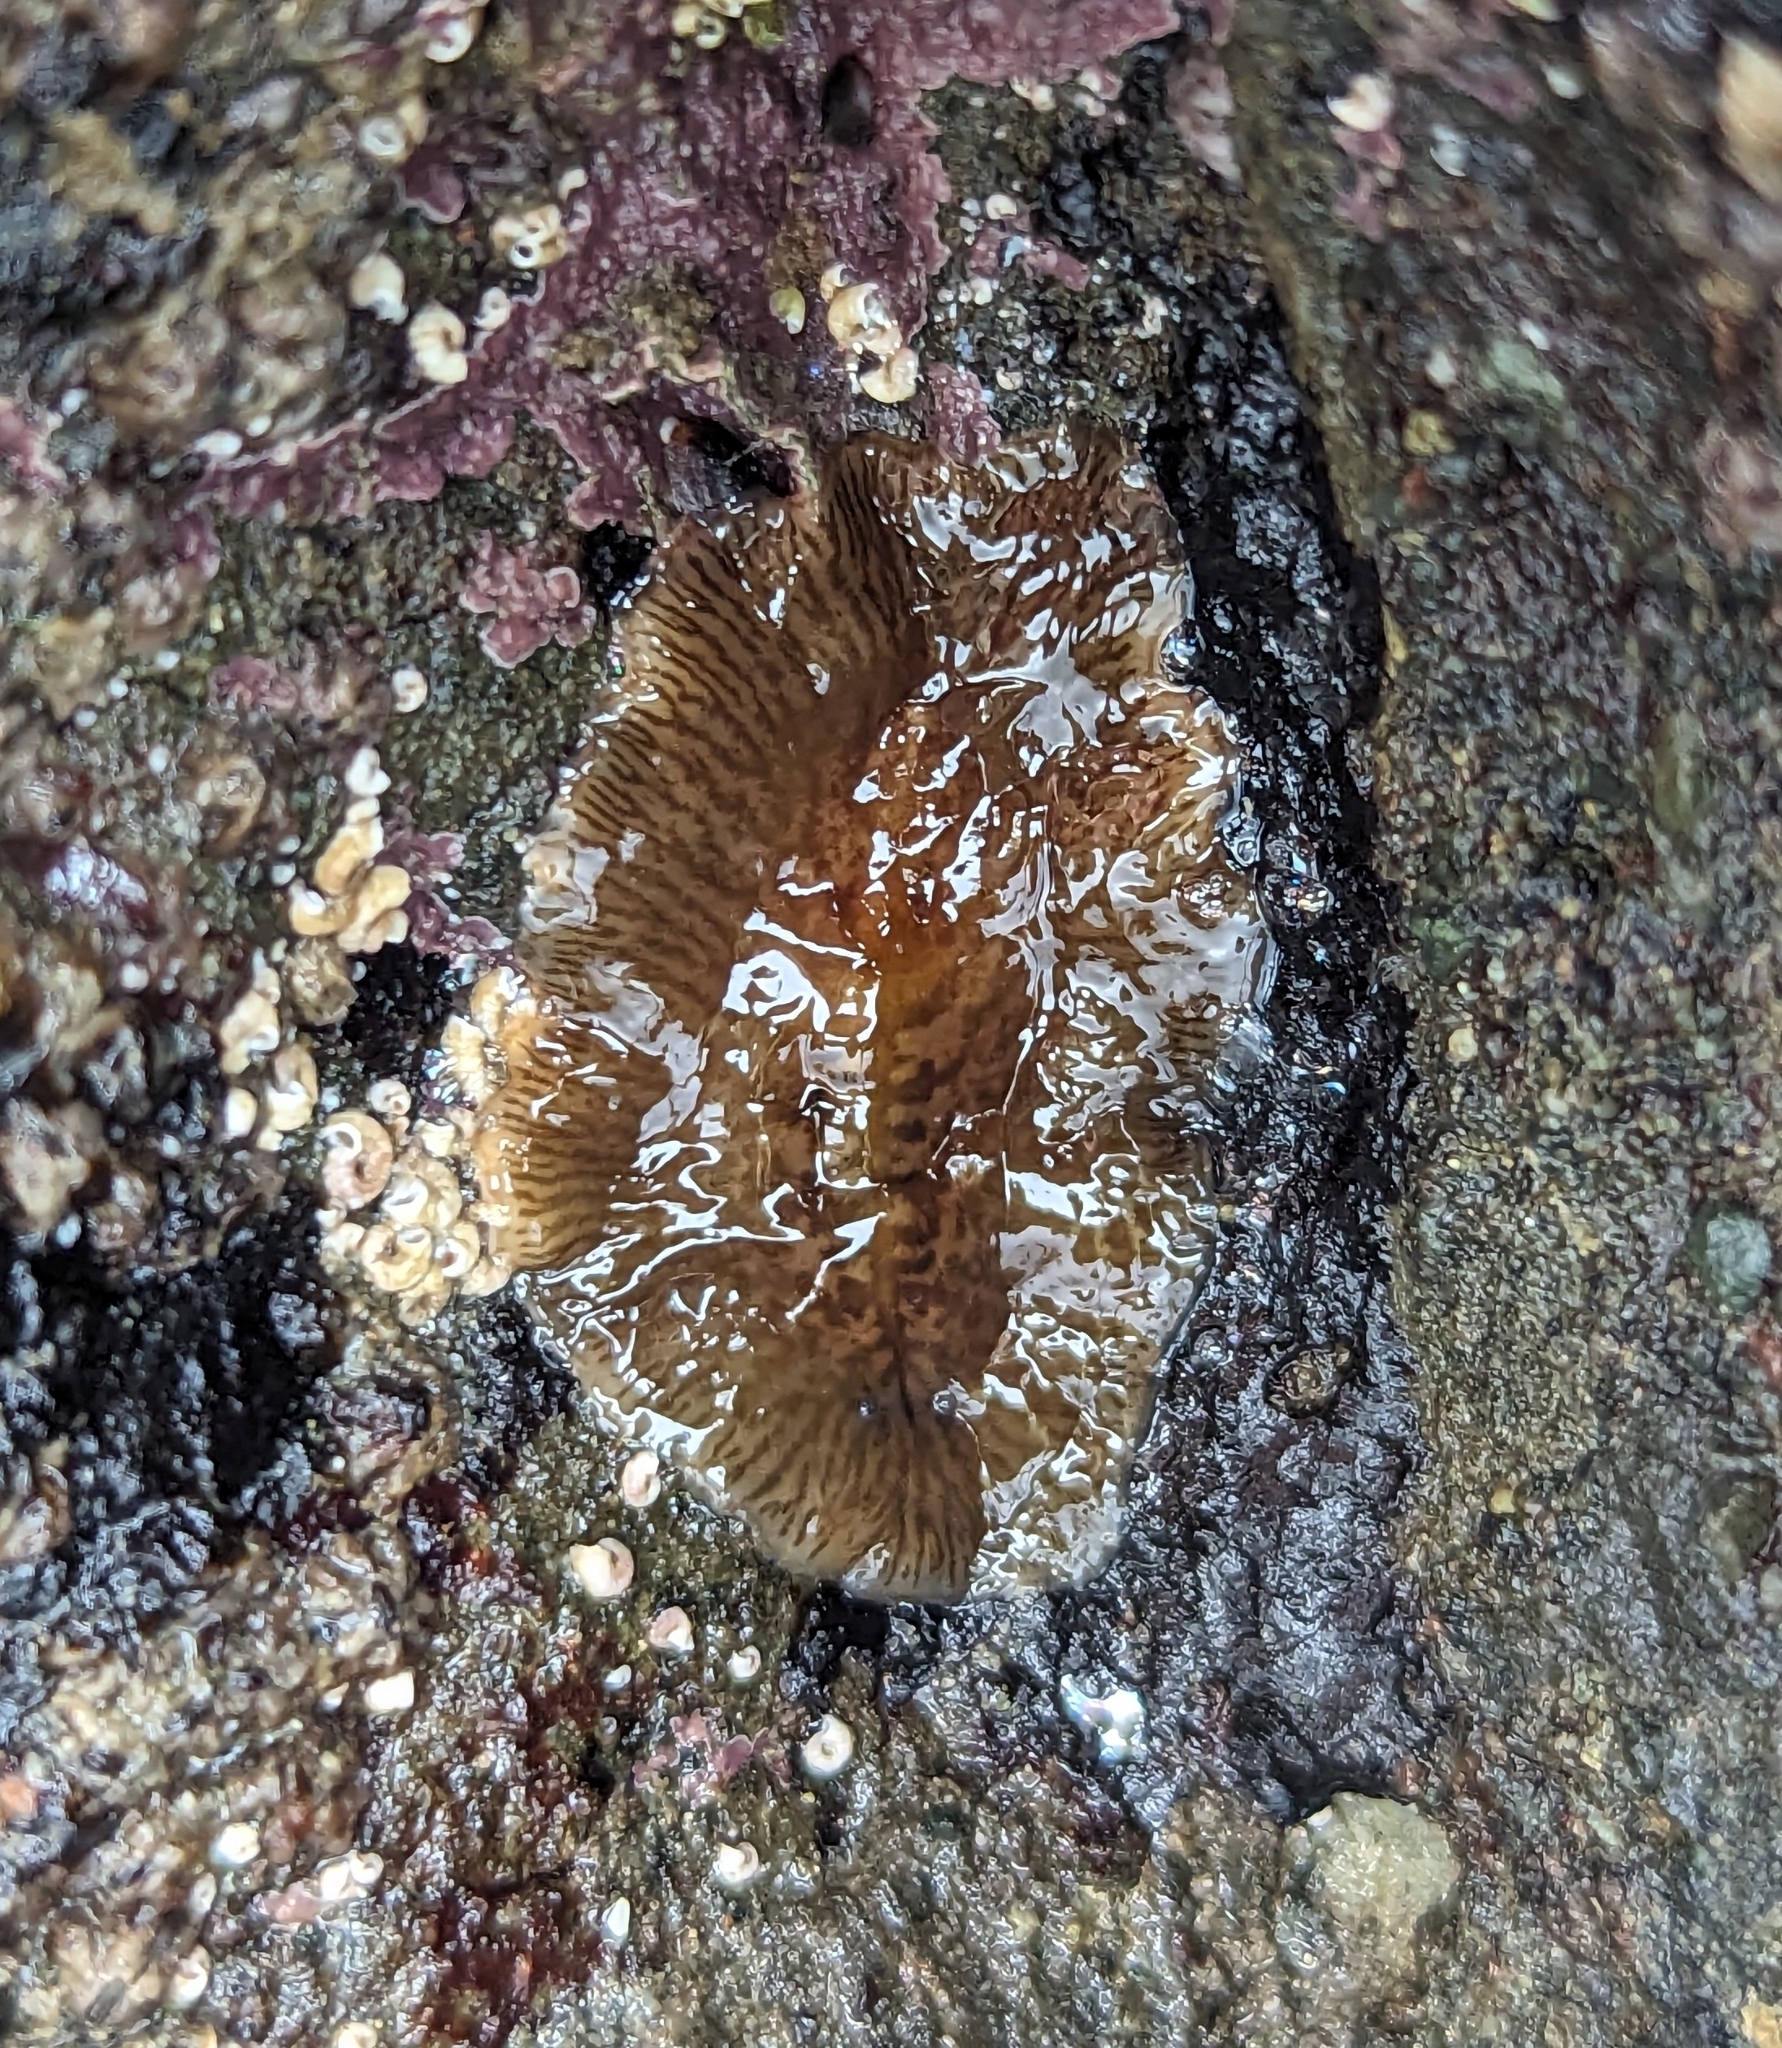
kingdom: Animalia
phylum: Platyhelminthes
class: Turbellaria
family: Cryptocelidae
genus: Hylocelis
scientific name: Hylocelis californica
